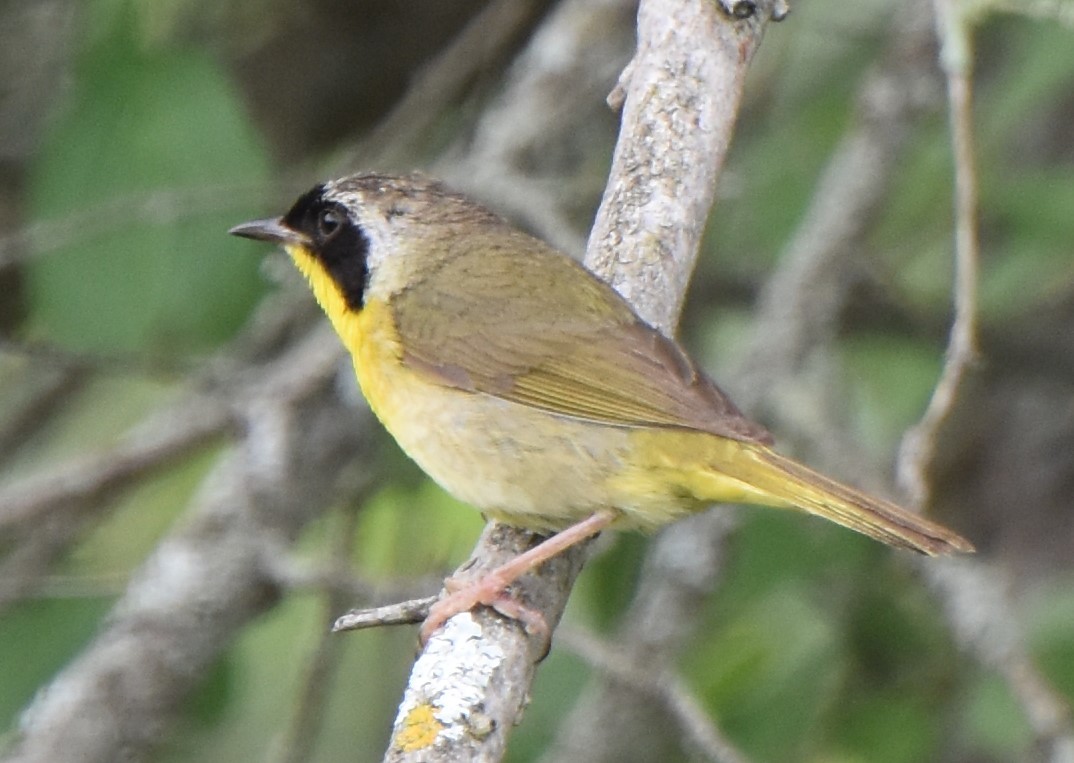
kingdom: Animalia
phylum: Chordata
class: Aves
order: Passeriformes
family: Parulidae
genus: Geothlypis
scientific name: Geothlypis trichas
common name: Common yellowthroat
